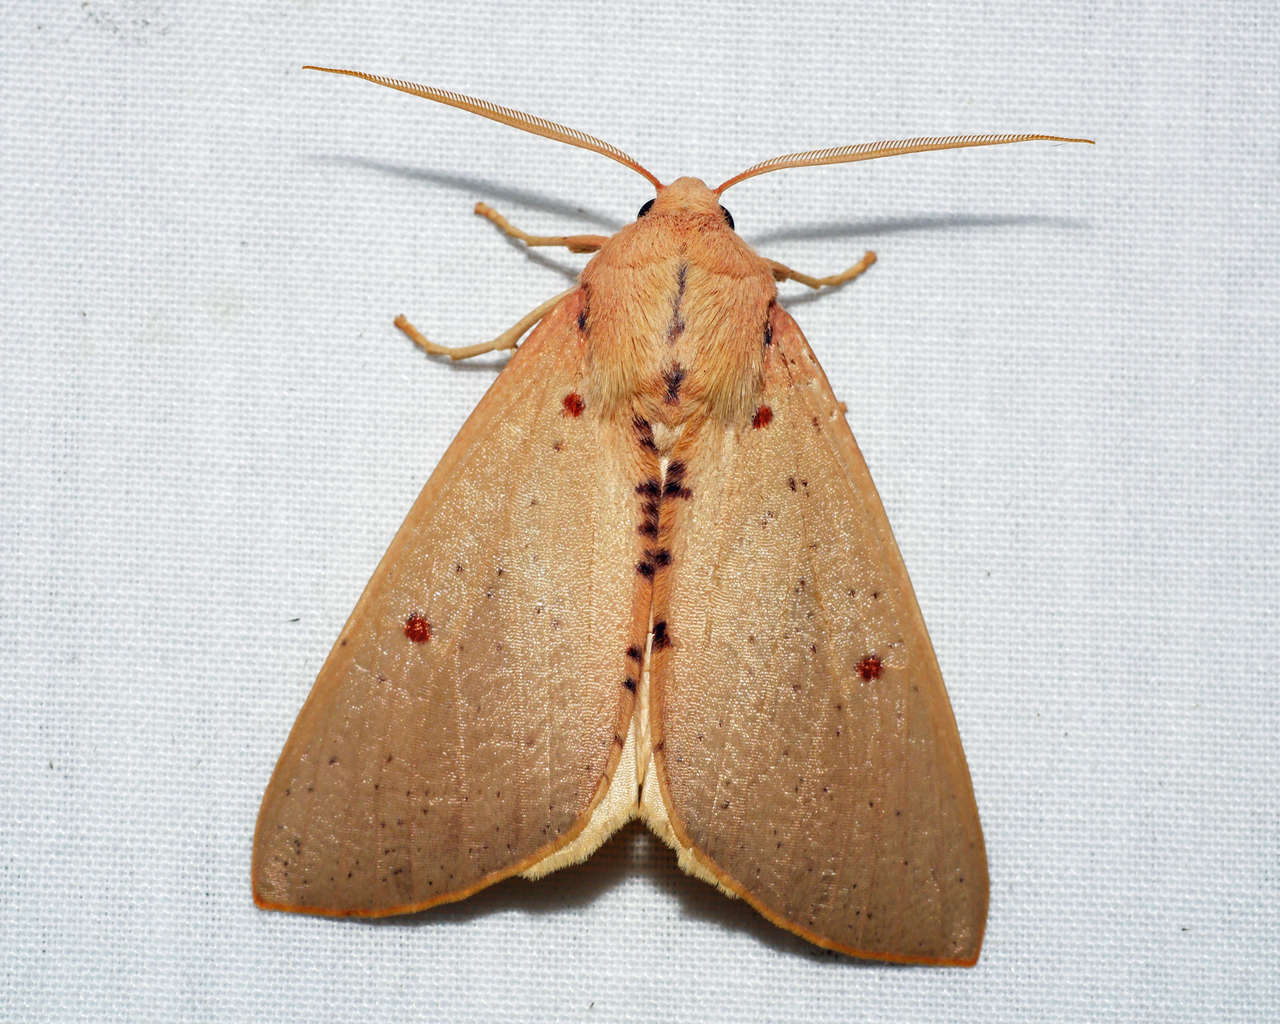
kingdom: Animalia
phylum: Arthropoda
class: Insecta
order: Lepidoptera
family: Geometridae
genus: Plesanemma
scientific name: Plesanemma fucata
